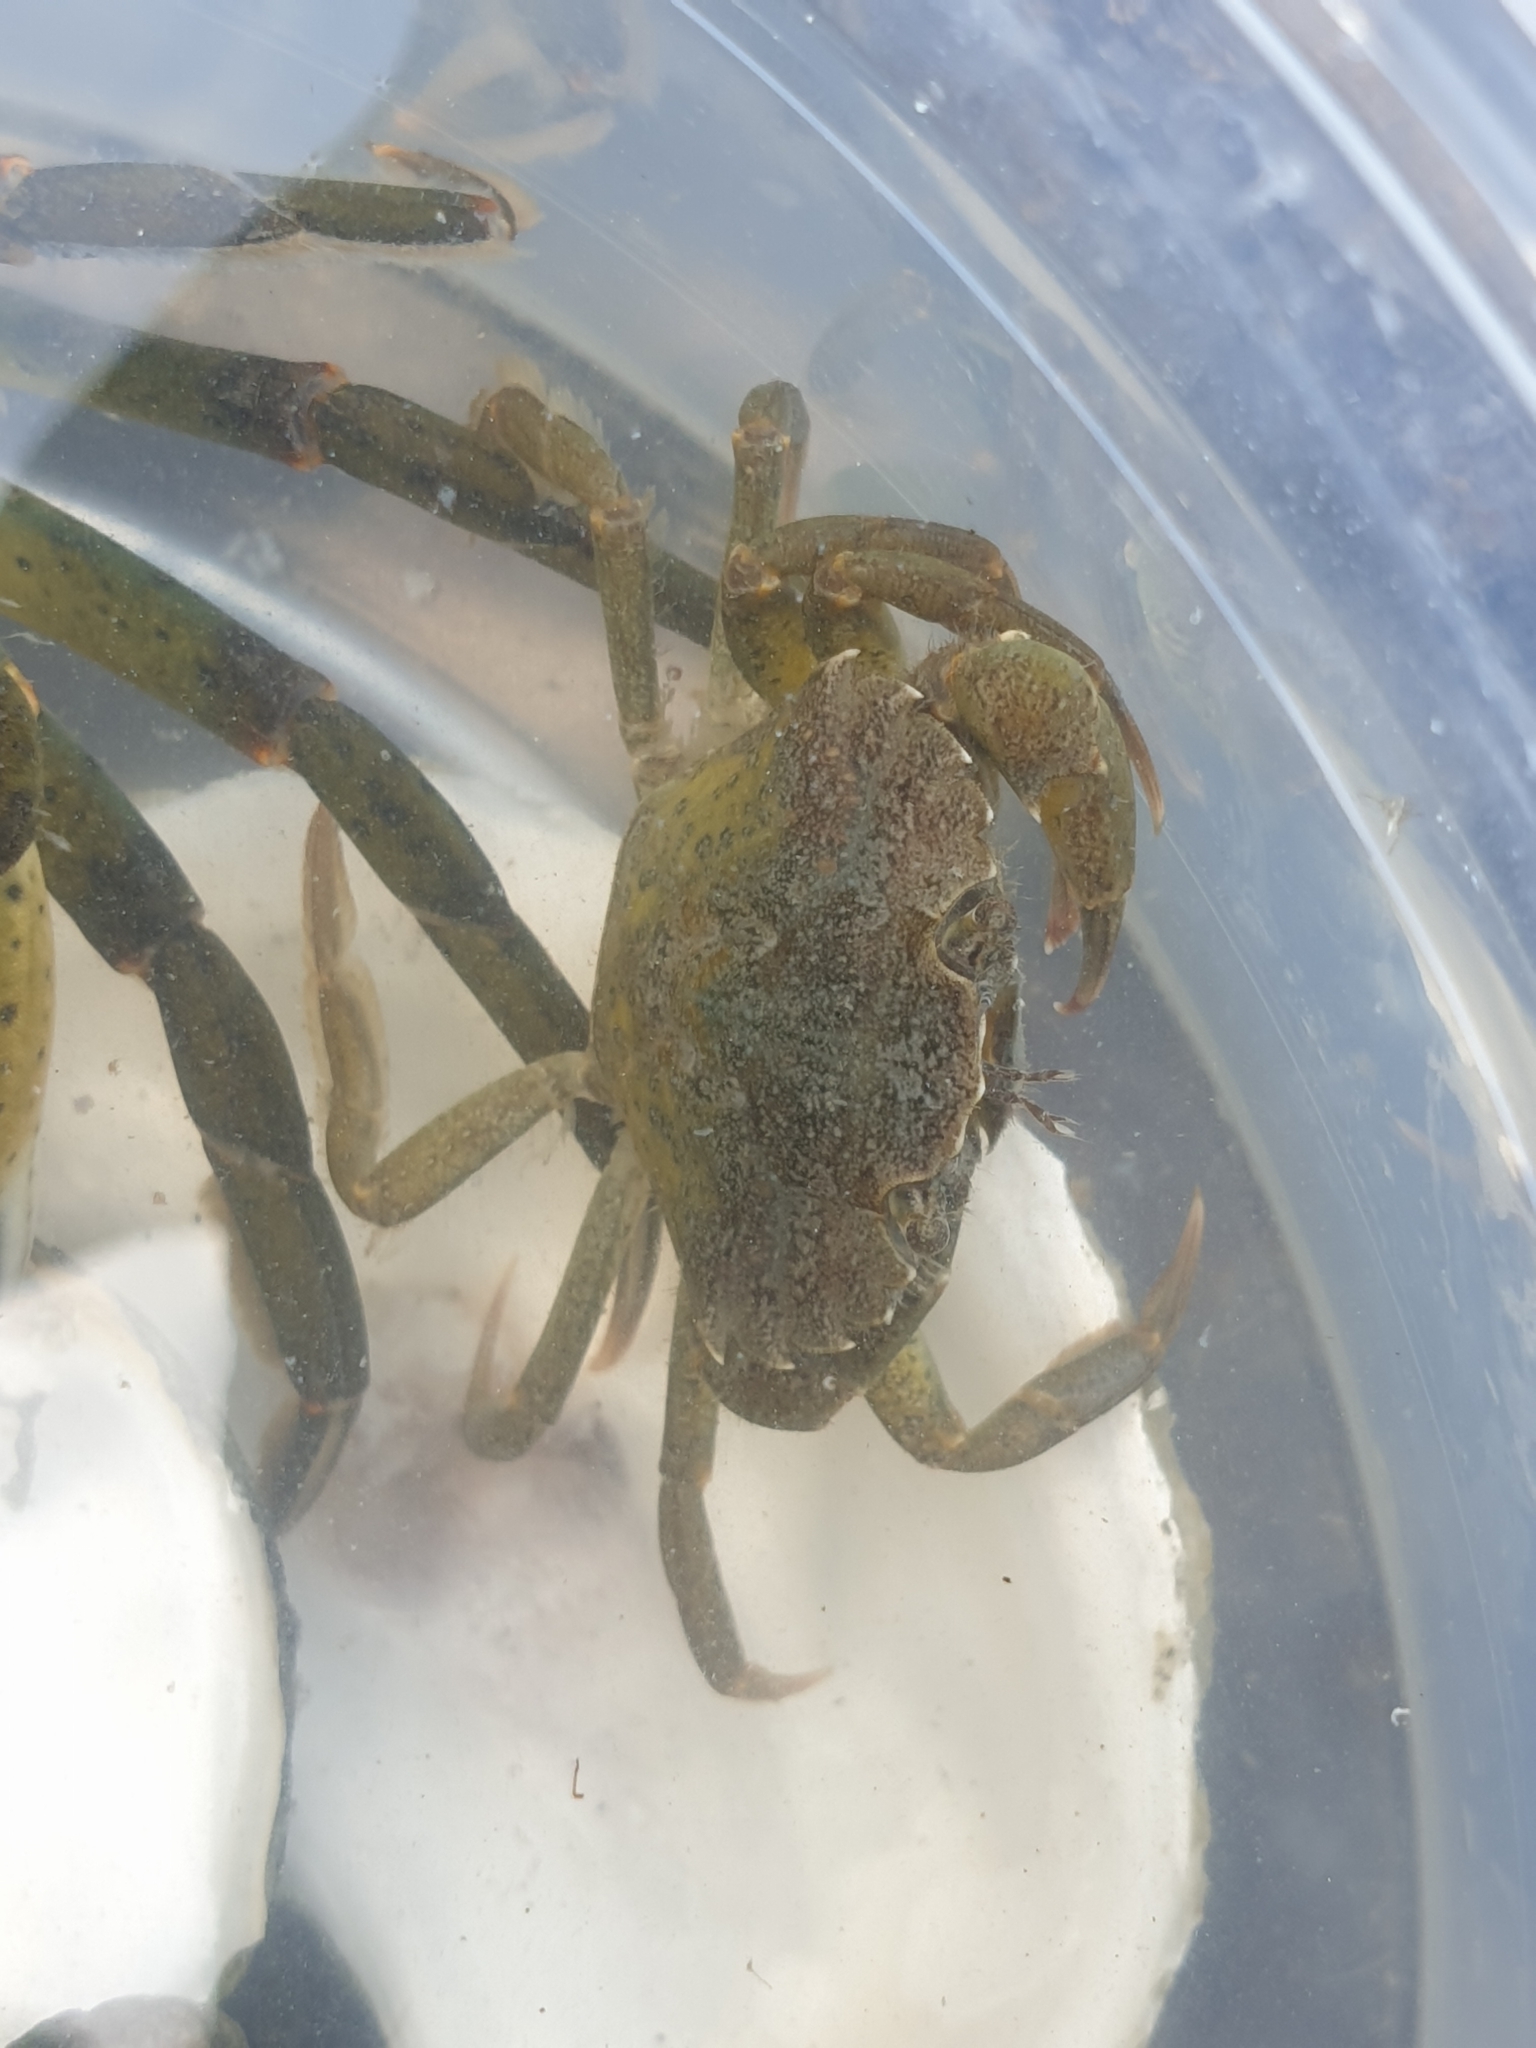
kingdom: Animalia
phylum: Arthropoda
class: Malacostraca
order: Decapoda
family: Carcinidae
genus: Carcinus
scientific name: Carcinus maenas
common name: European green crab
